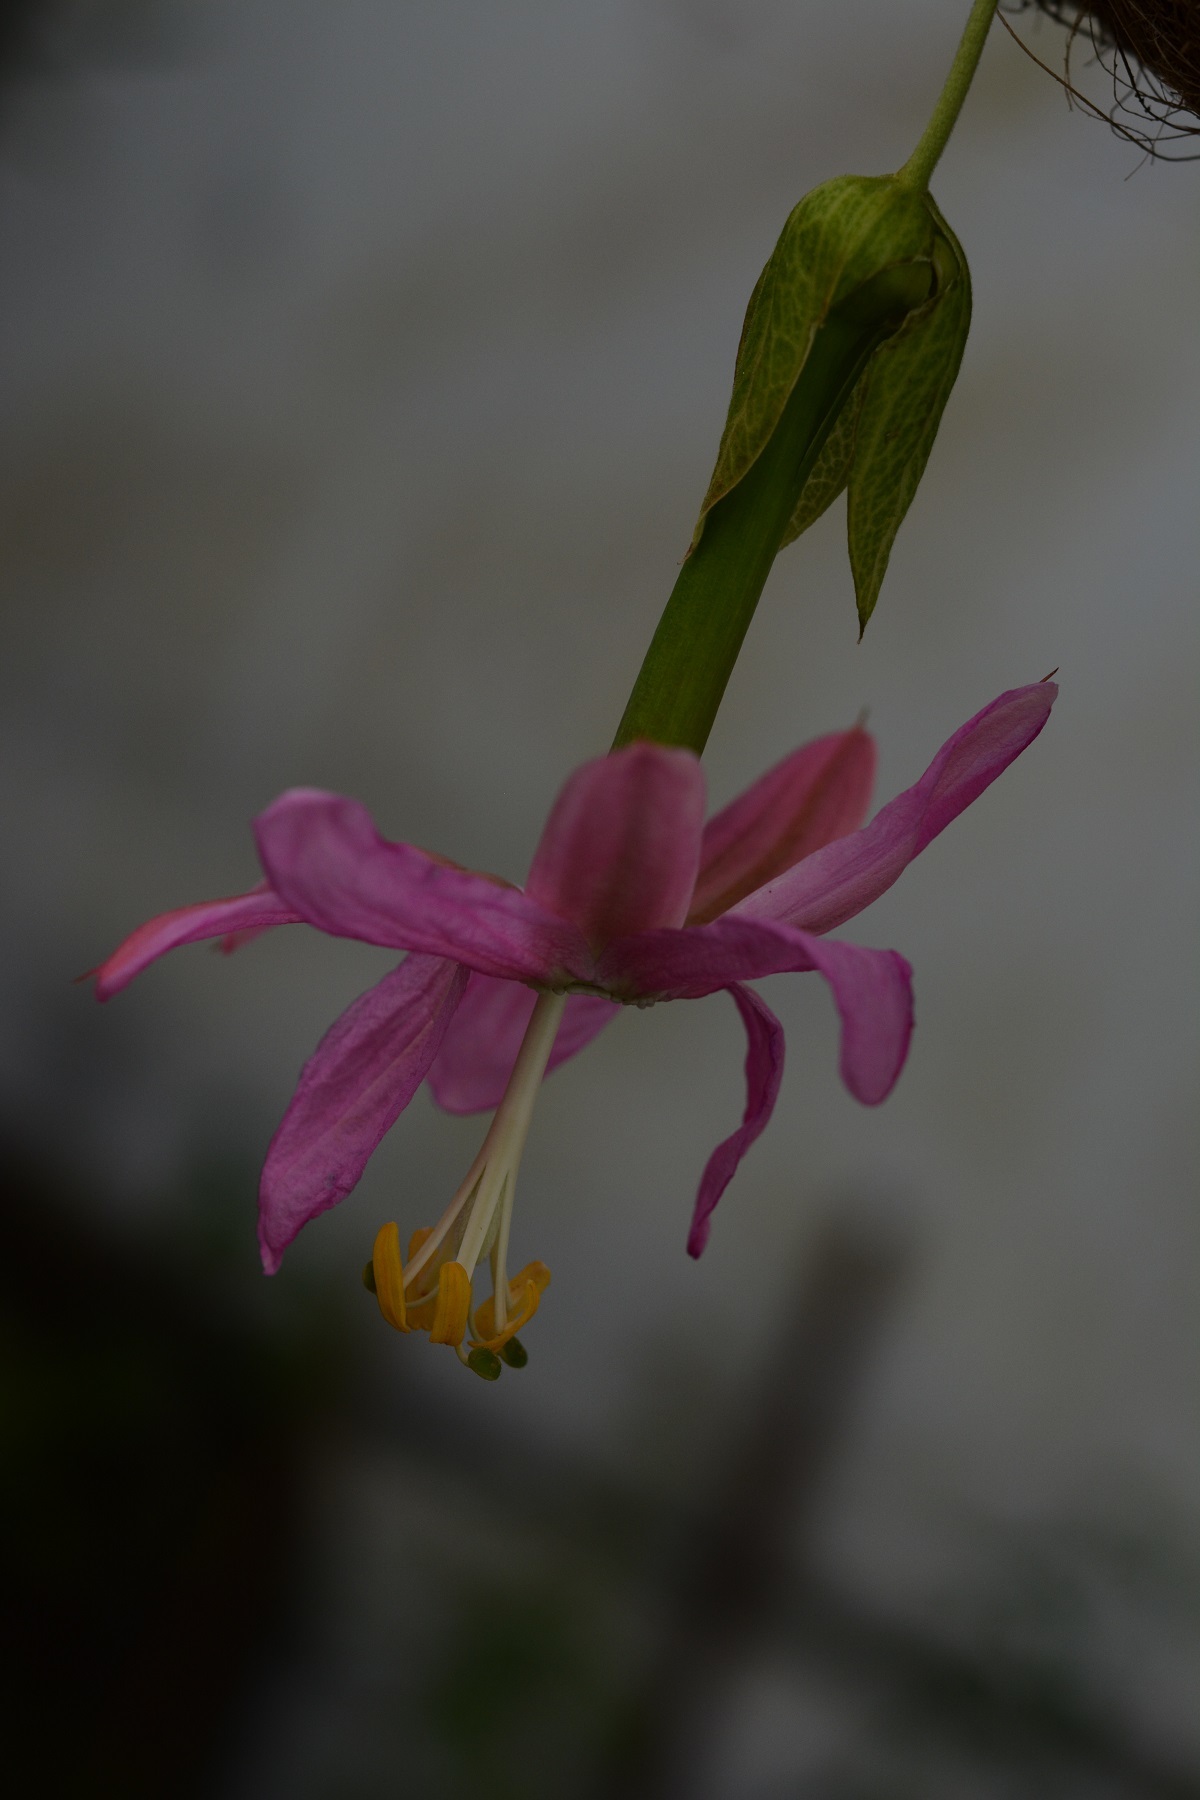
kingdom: Plantae
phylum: Tracheophyta
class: Magnoliopsida
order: Malpighiales
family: Passifloraceae
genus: Passiflora
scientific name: Passiflora tarminiana
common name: Banana poka
